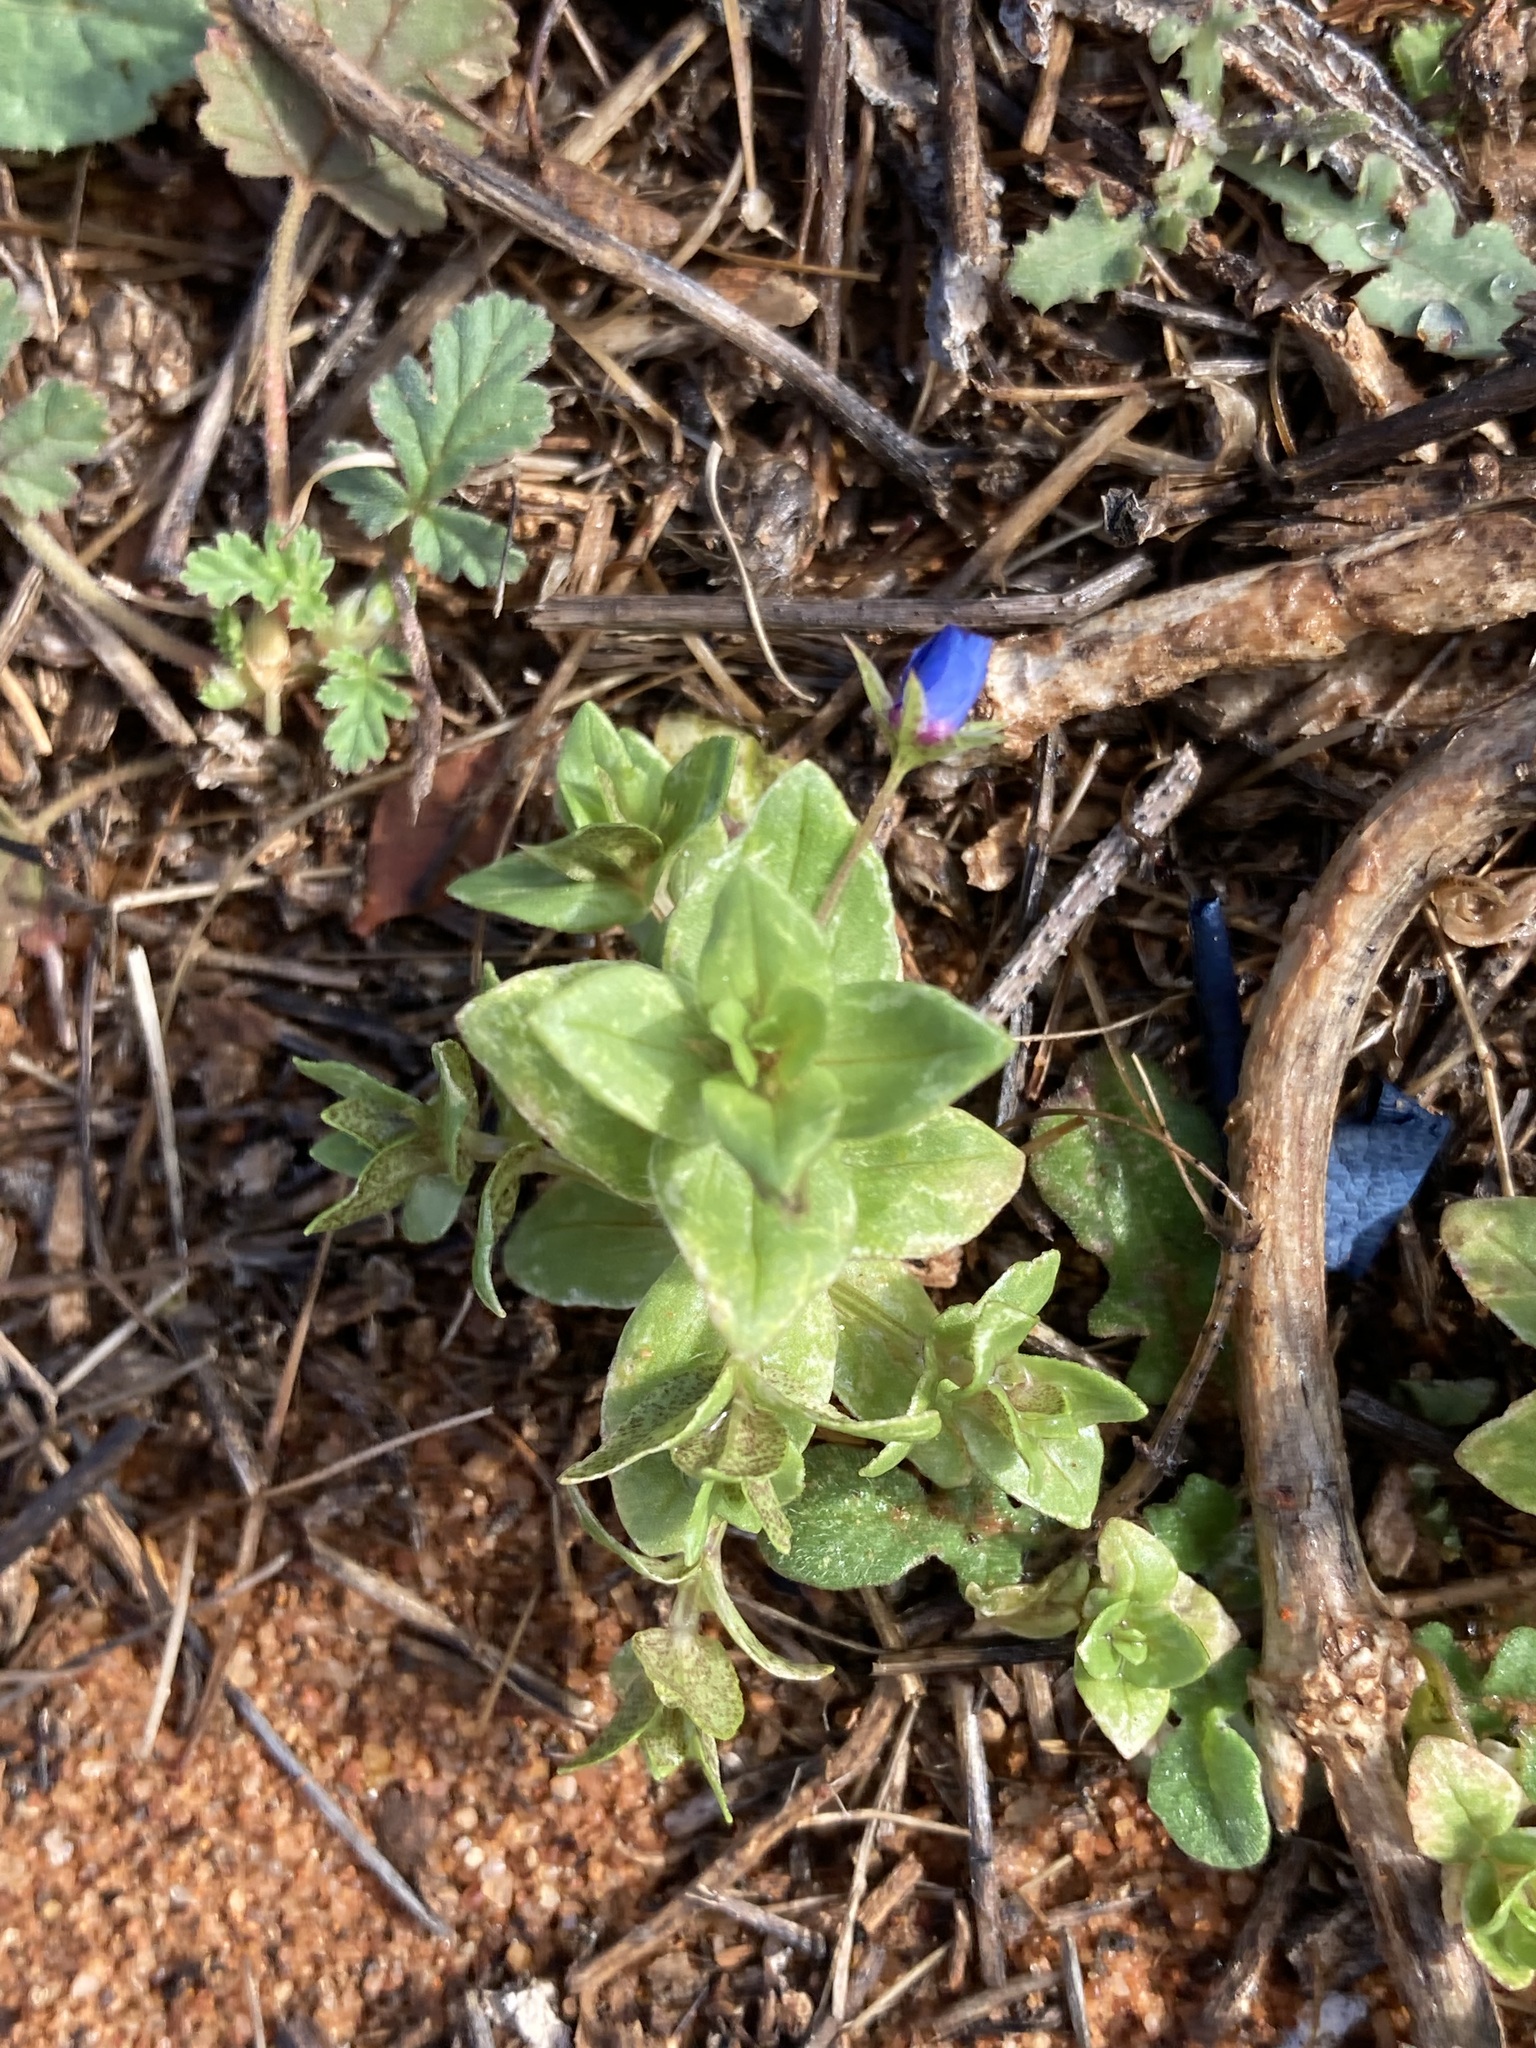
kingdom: Plantae
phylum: Tracheophyta
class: Magnoliopsida
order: Ericales
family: Primulaceae
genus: Lysimachia
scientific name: Lysimachia loeflingii
